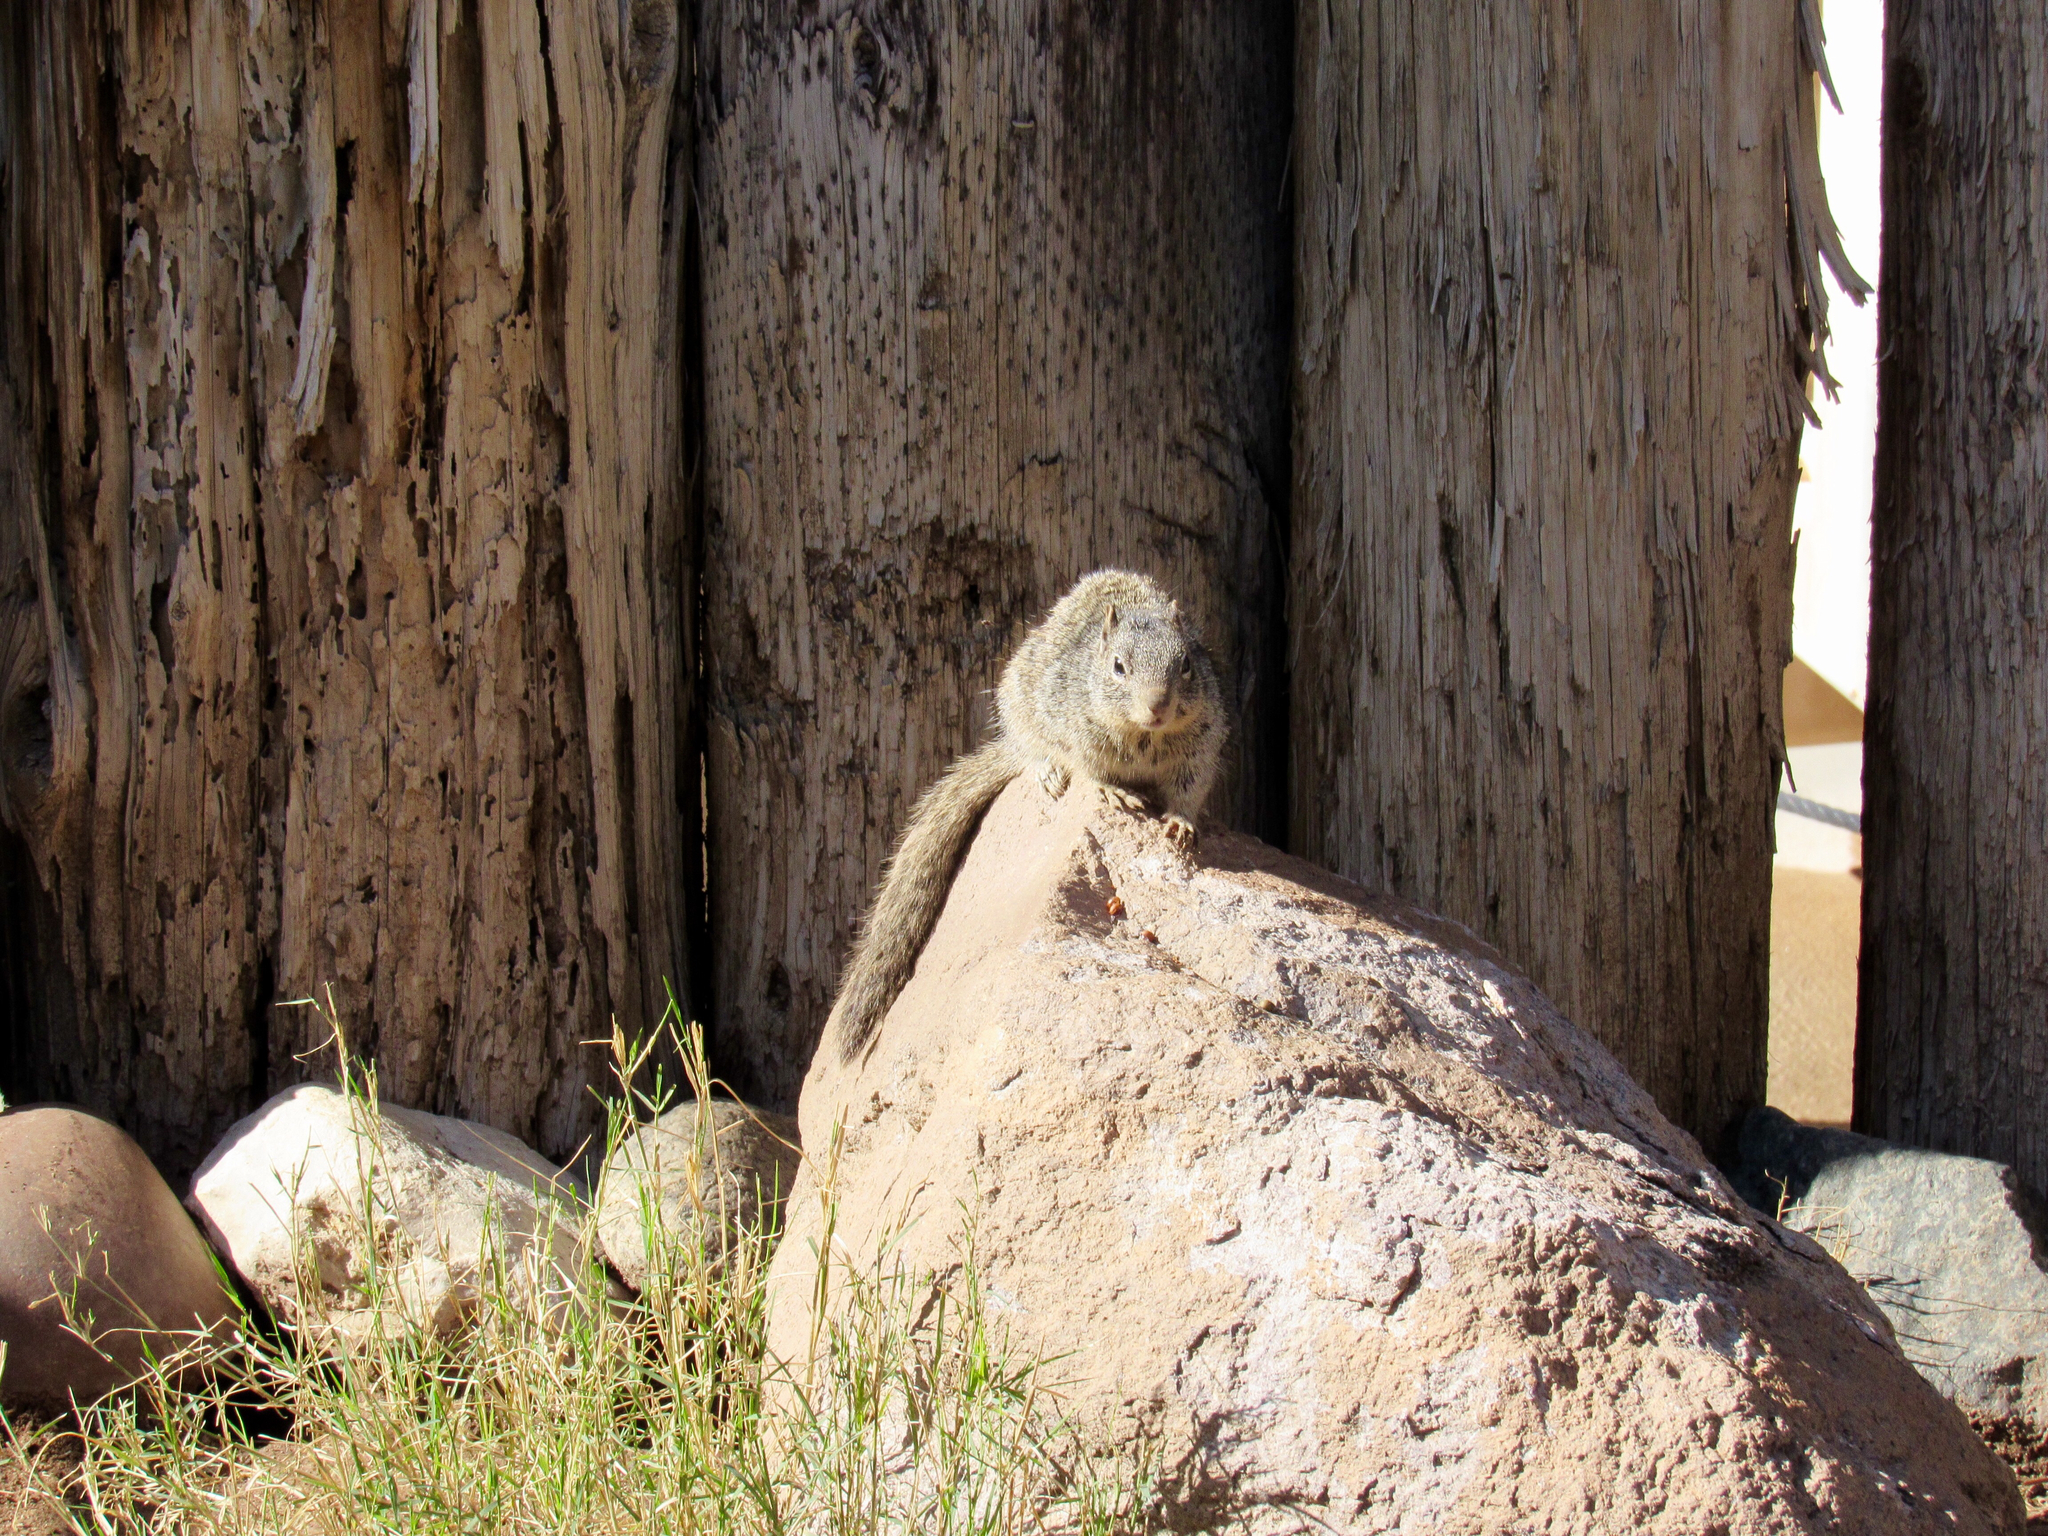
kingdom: Animalia
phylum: Chordata
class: Mammalia
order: Rodentia
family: Sciuridae
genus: Otospermophilus
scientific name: Otospermophilus variegatus
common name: Rock squirrel
